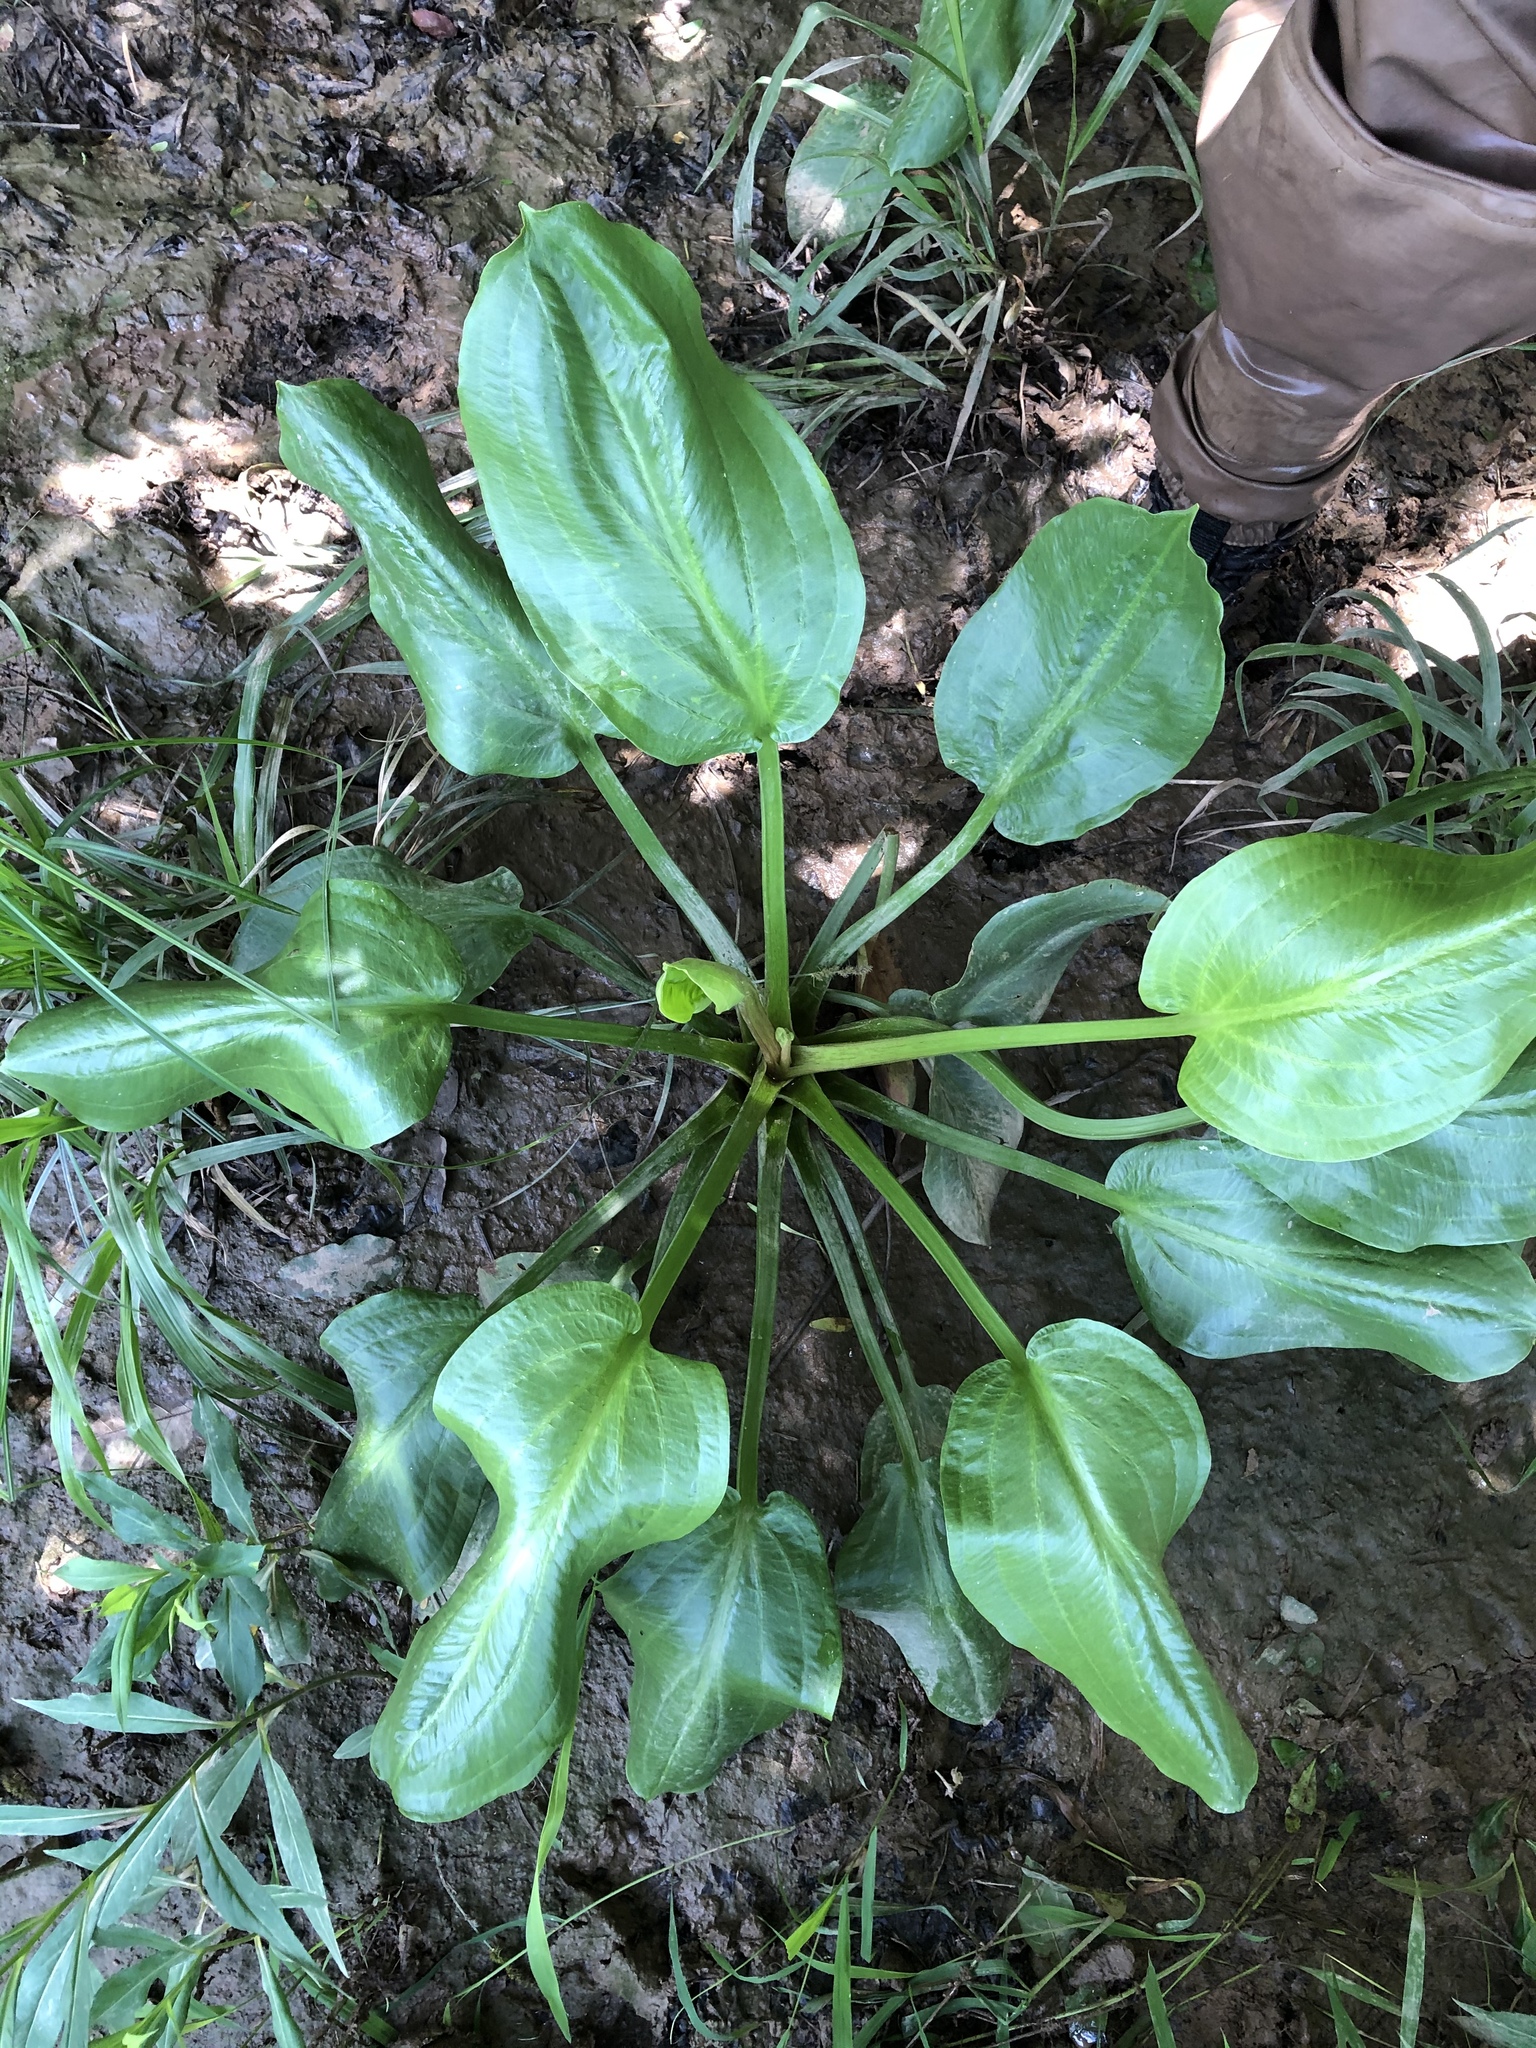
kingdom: Plantae
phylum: Tracheophyta
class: Liliopsida
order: Alismatales
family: Alismataceae
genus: Alisma
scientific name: Alisma subcordatum
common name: Southern water-plantain
